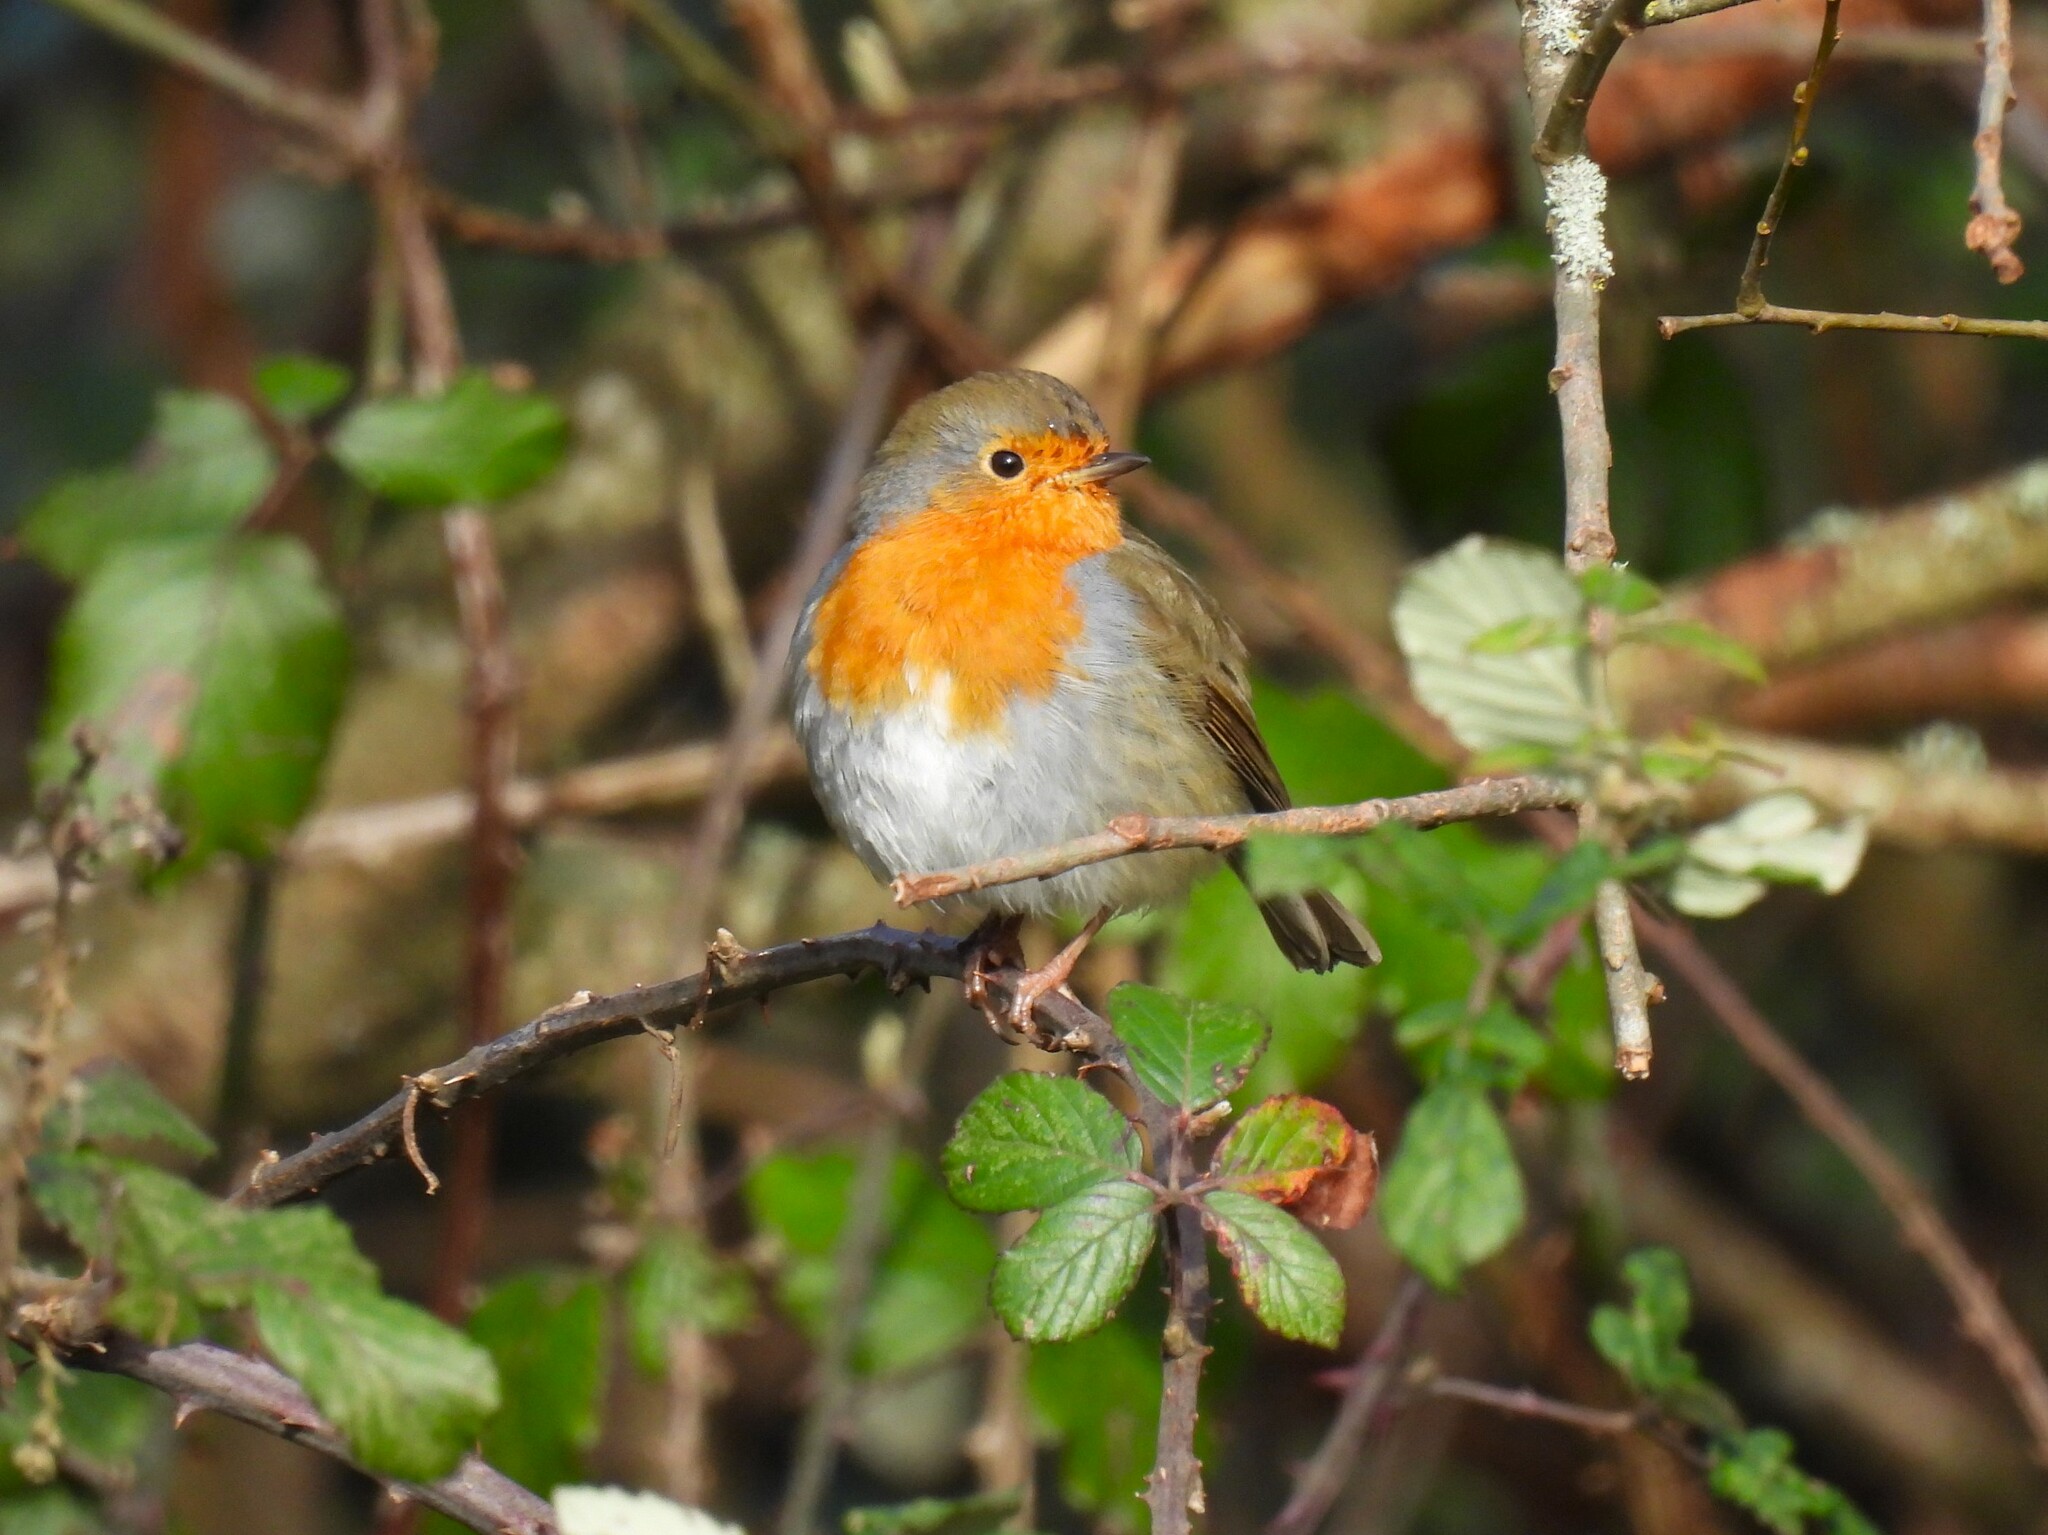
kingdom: Animalia
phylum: Chordata
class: Aves
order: Passeriformes
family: Muscicapidae
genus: Erithacus
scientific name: Erithacus rubecula
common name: European robin
